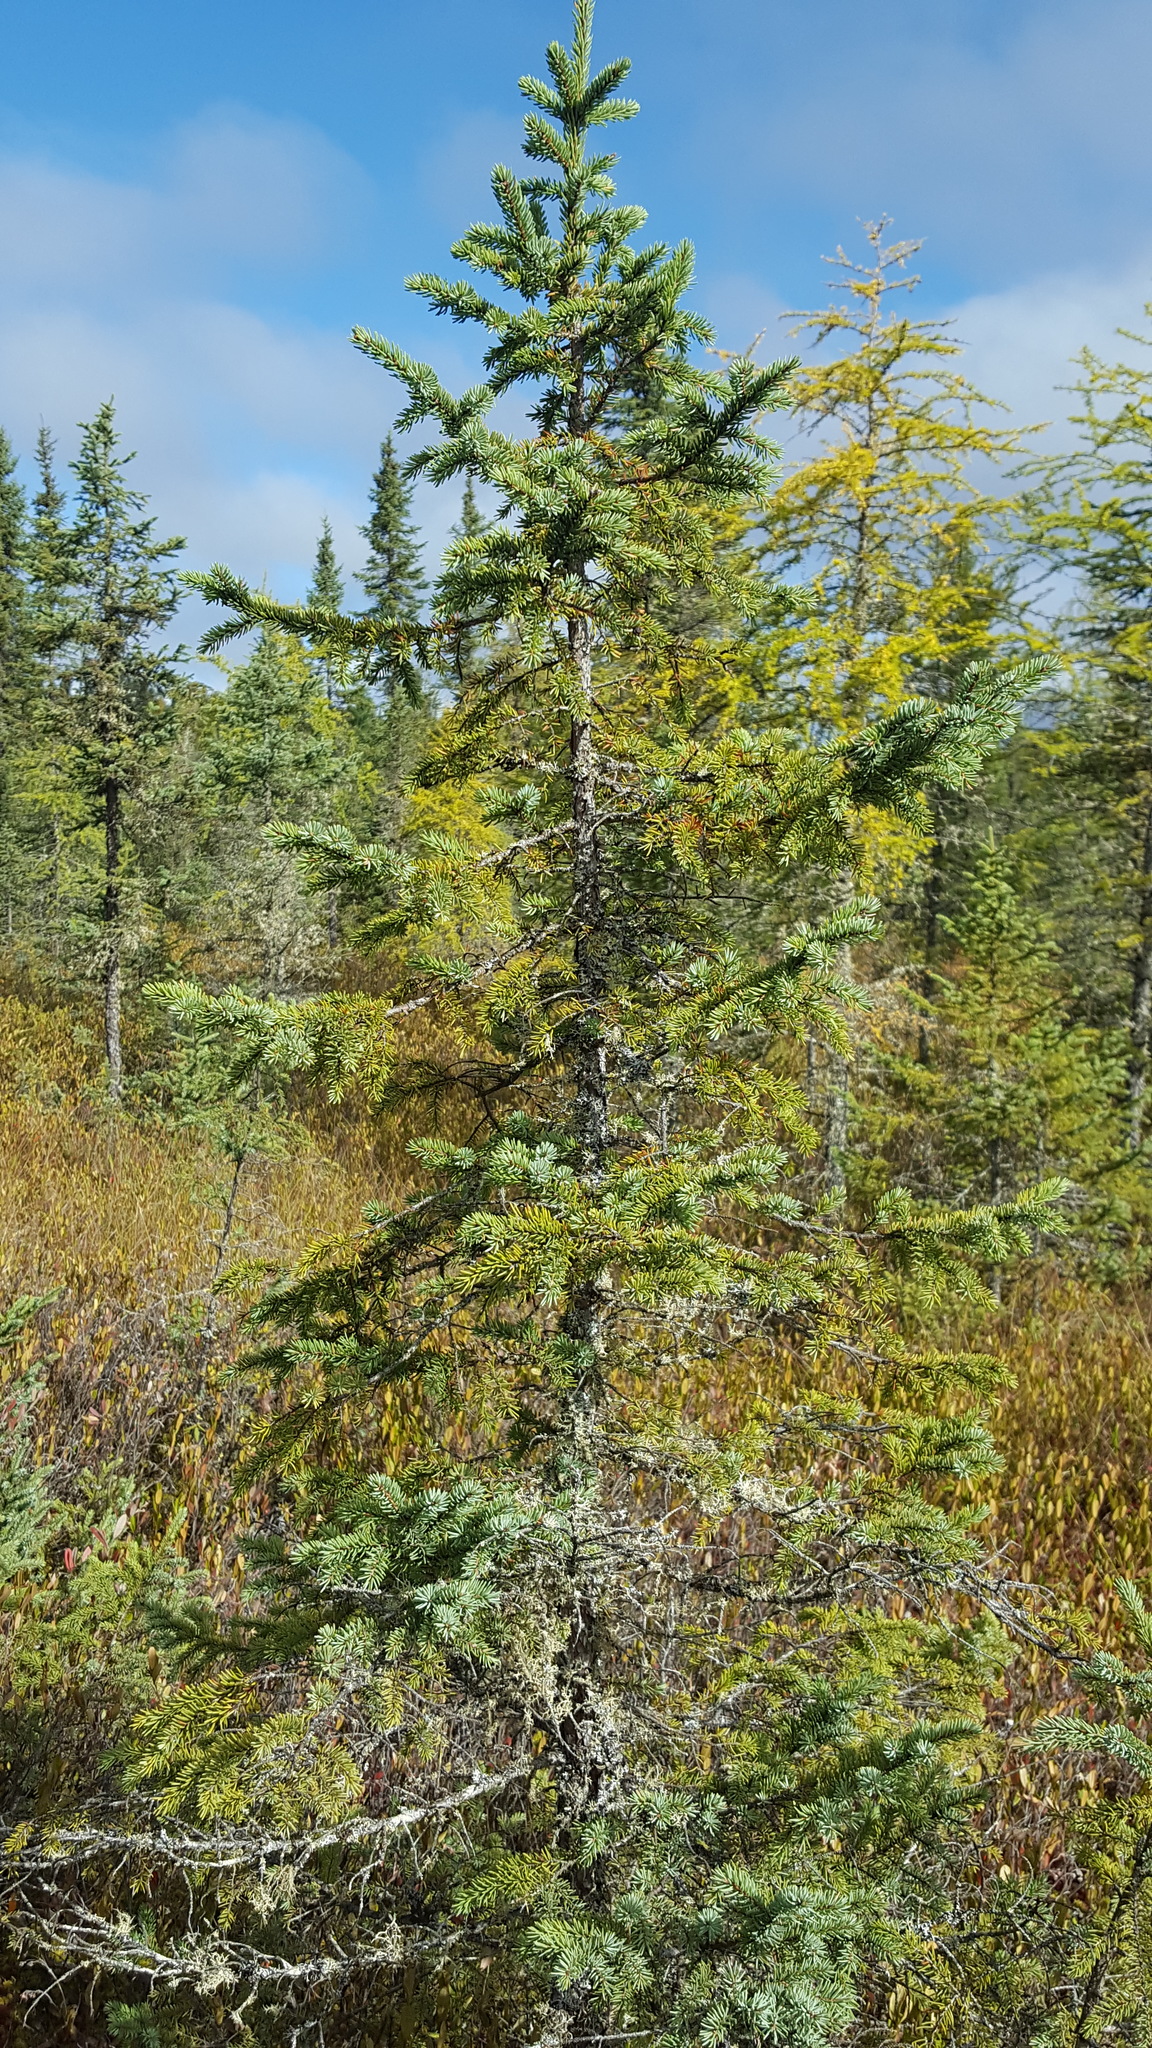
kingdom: Plantae
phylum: Tracheophyta
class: Pinopsida
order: Pinales
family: Pinaceae
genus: Picea
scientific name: Picea mariana
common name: Black spruce
